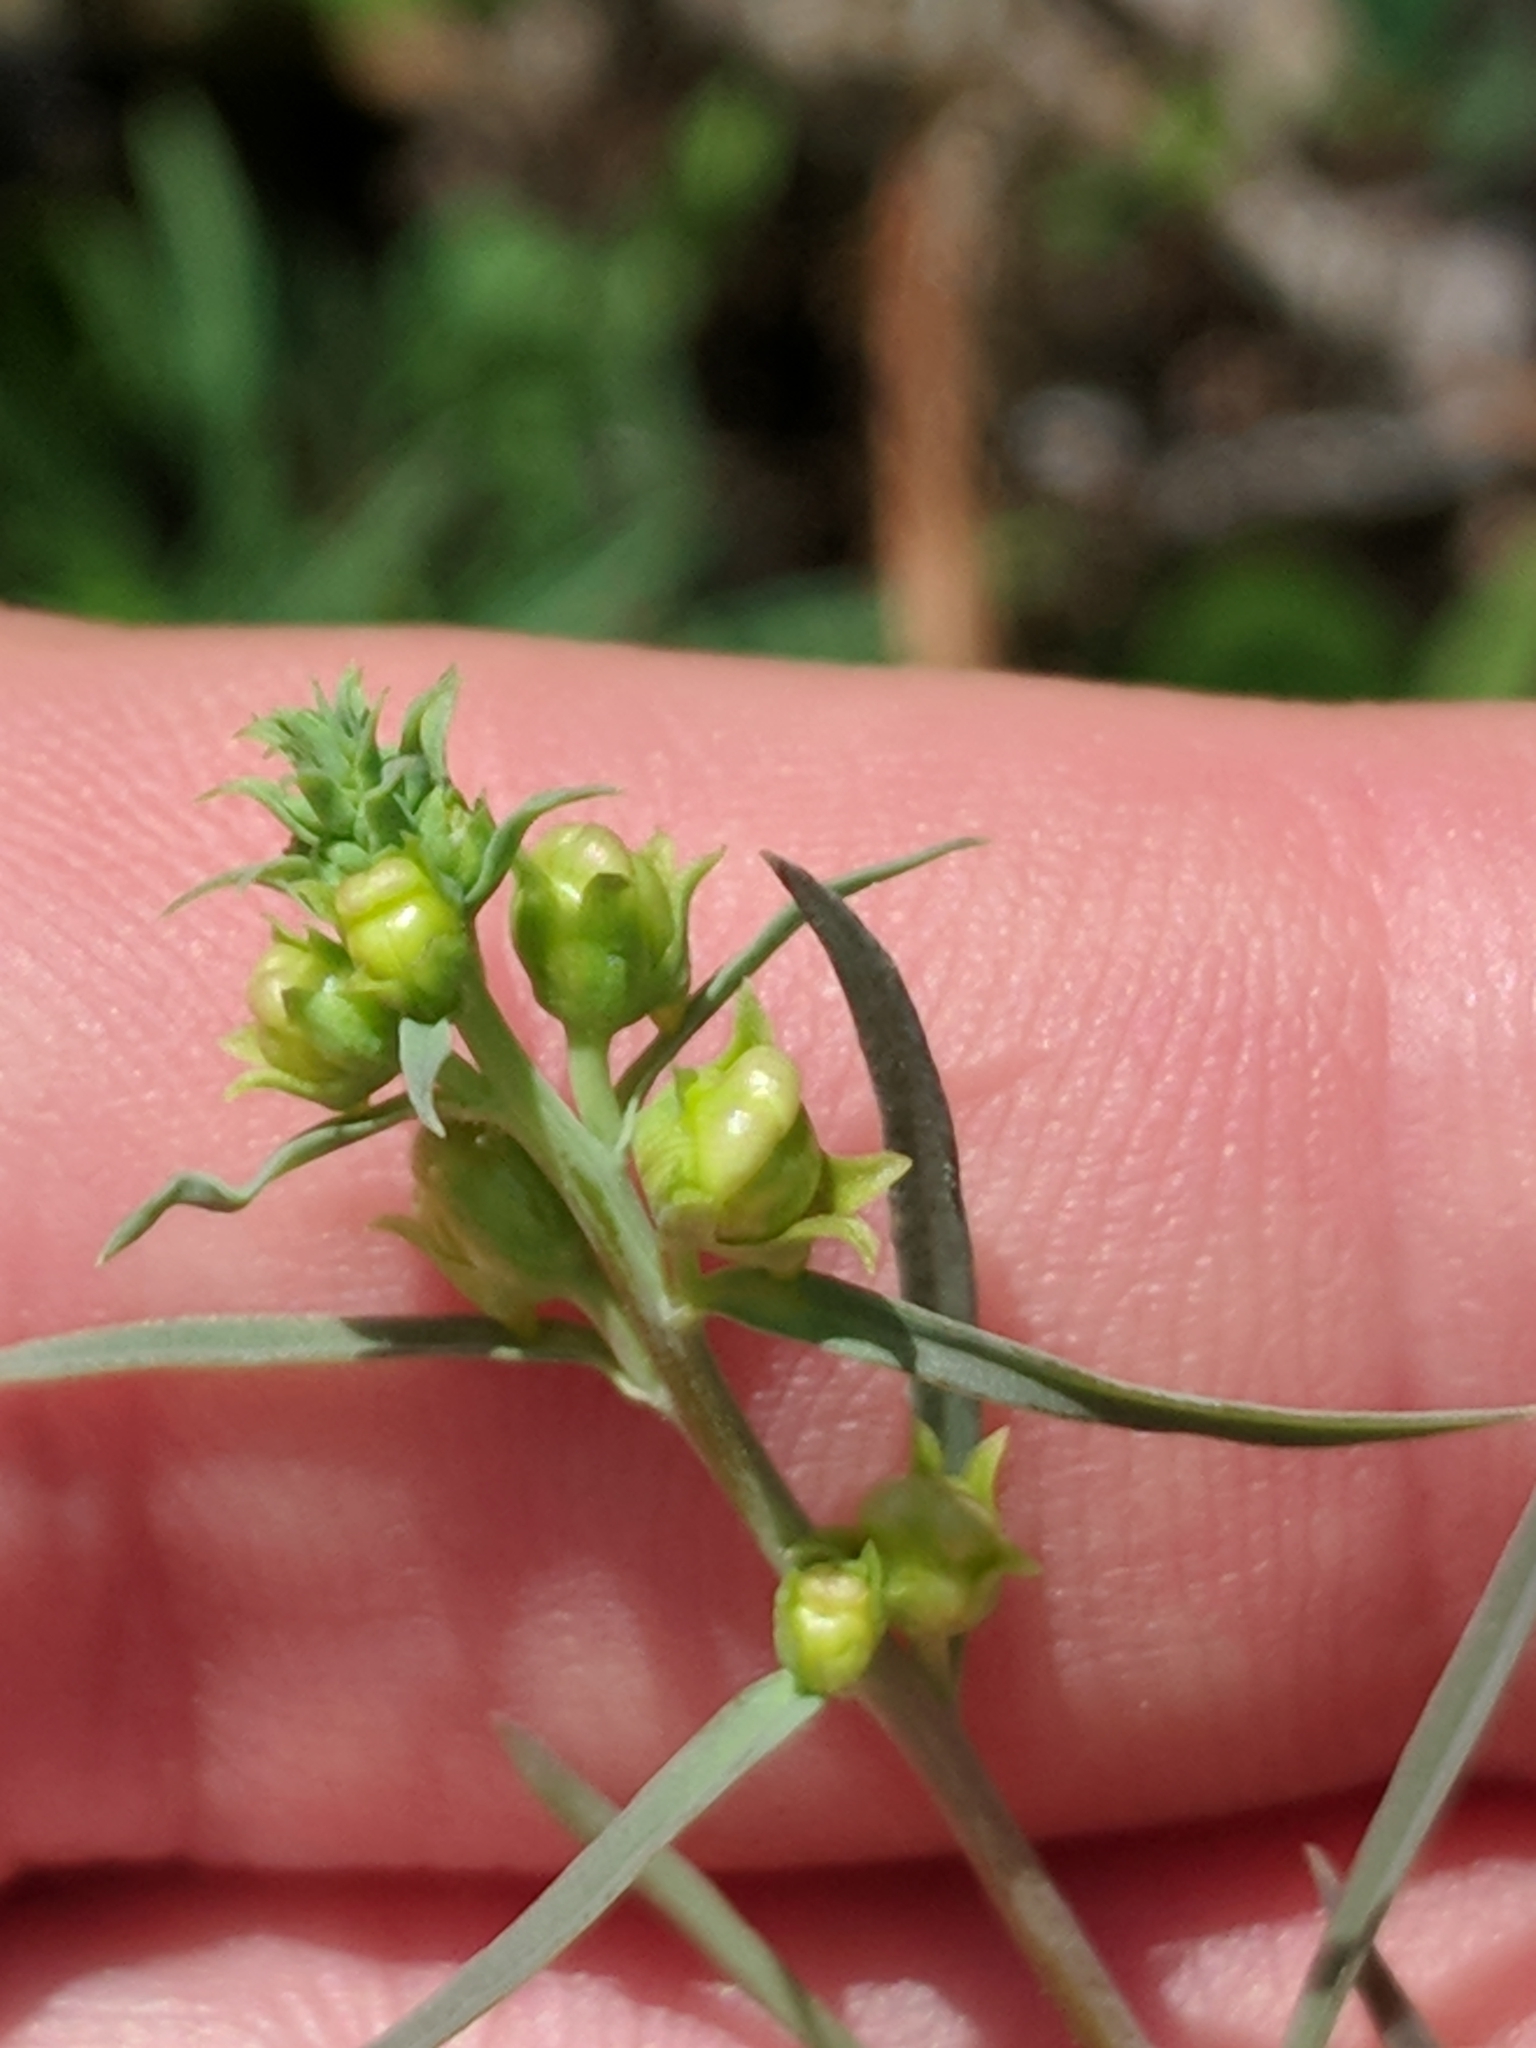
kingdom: Plantae
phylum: Tracheophyta
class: Magnoliopsida
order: Lamiales
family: Plantaginaceae
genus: Linaria
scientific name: Linaria vulgaris
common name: Butter and eggs
